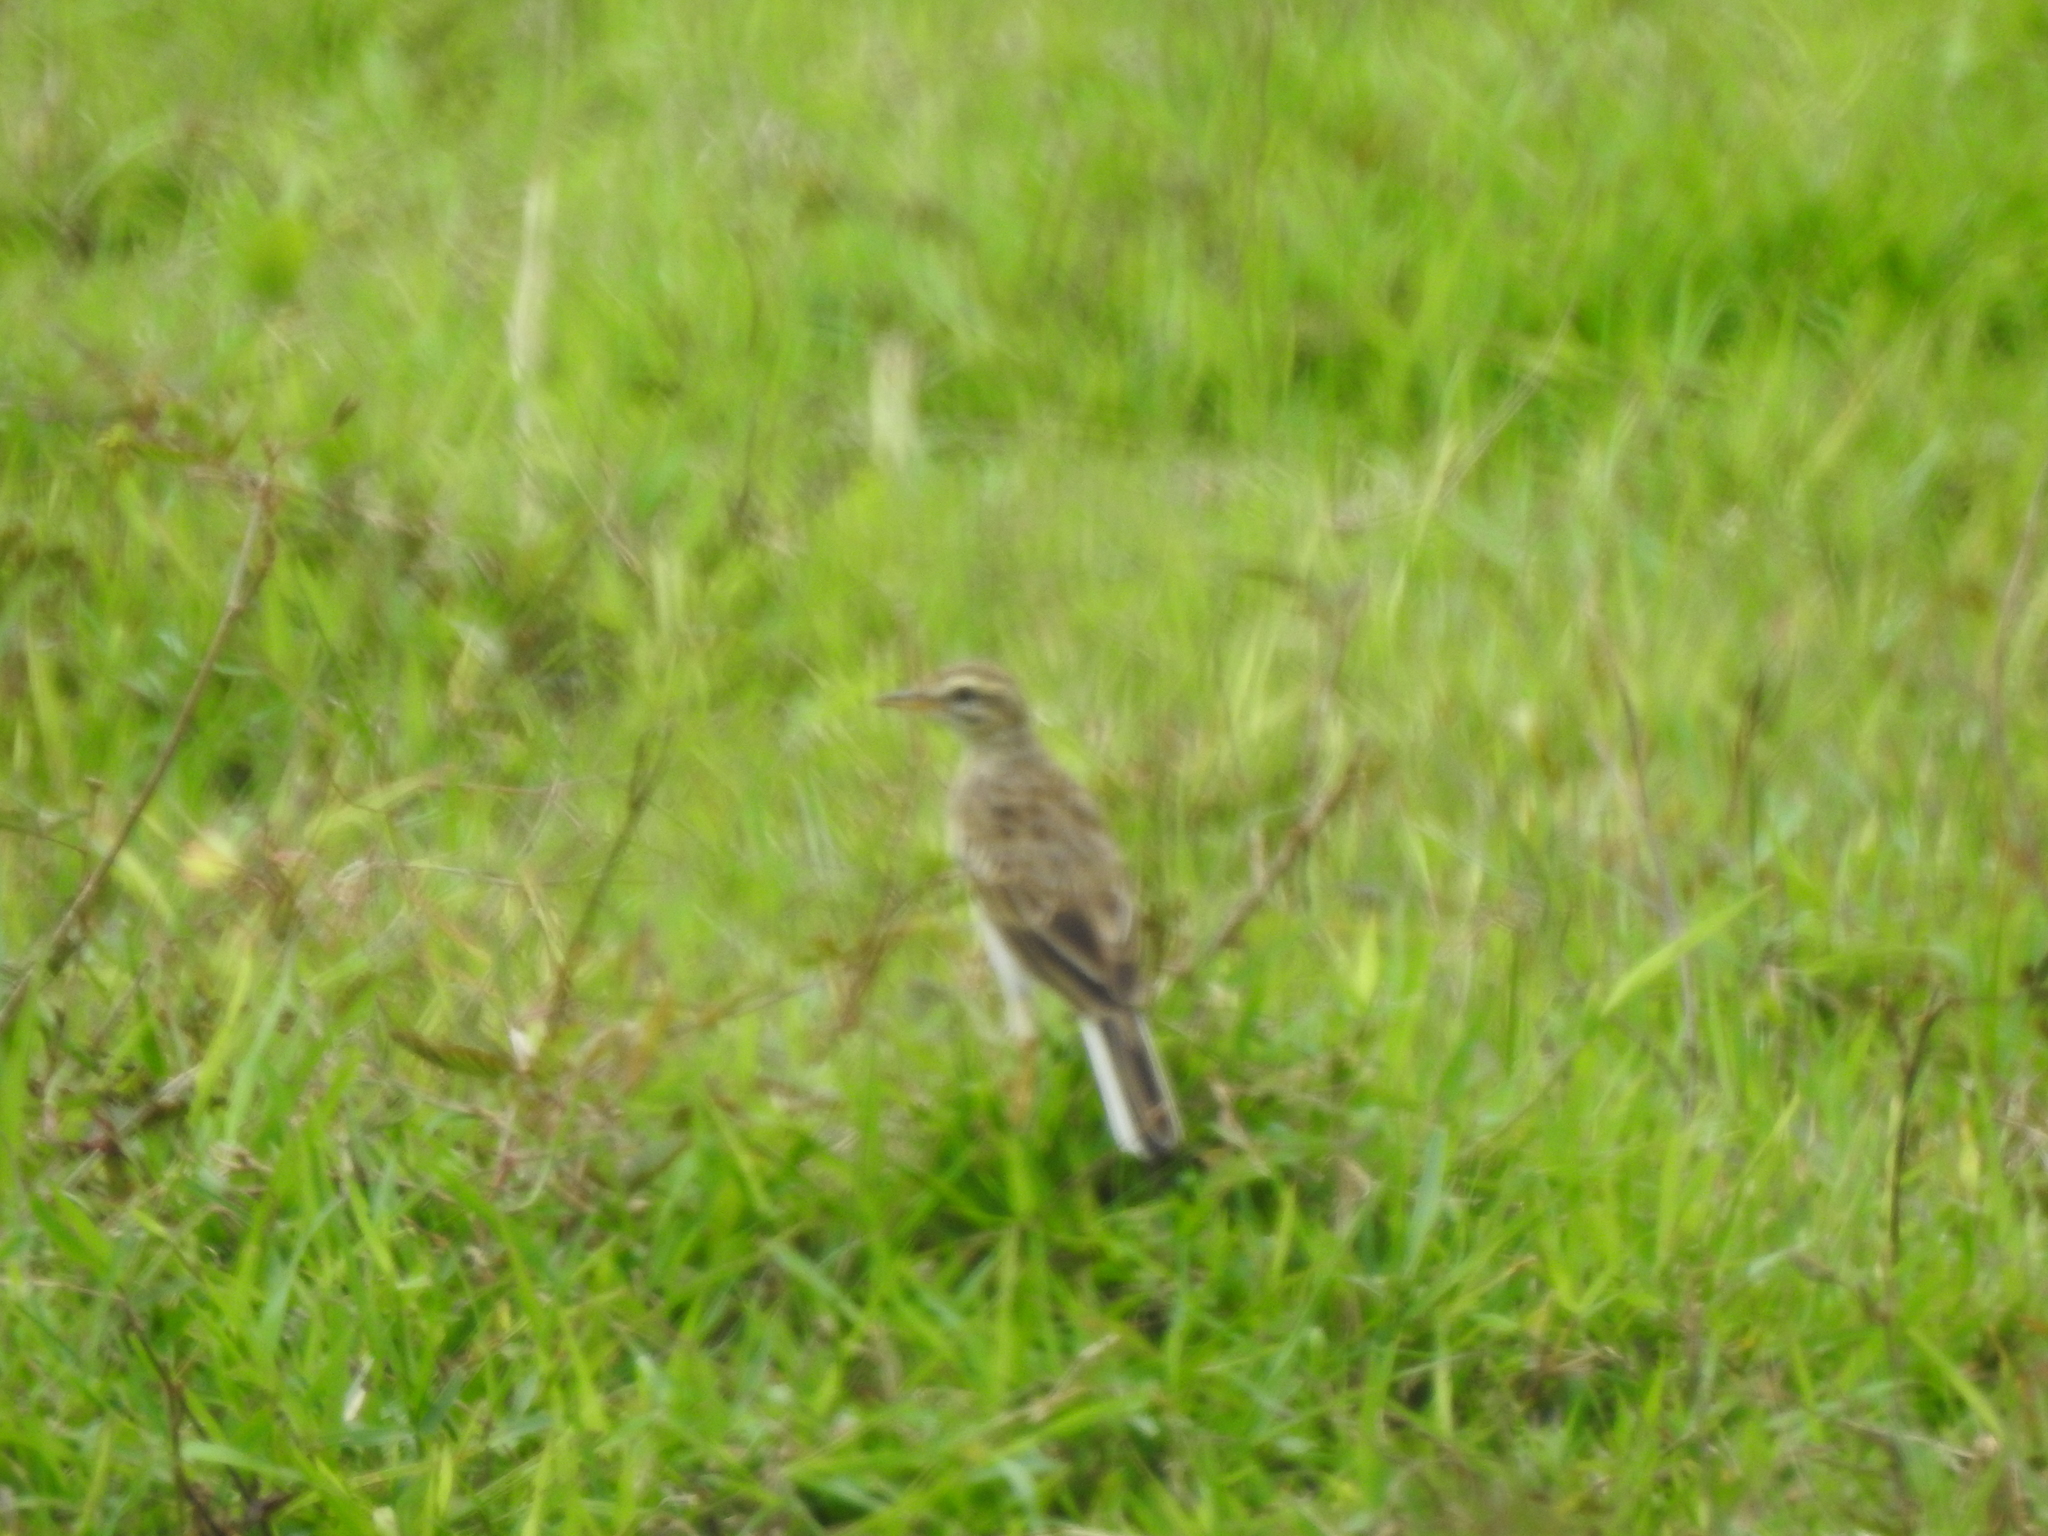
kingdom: Animalia
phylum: Chordata
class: Aves
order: Passeriformes
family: Motacillidae
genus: Anthus
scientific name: Anthus rufulus
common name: Paddyfield pipit
